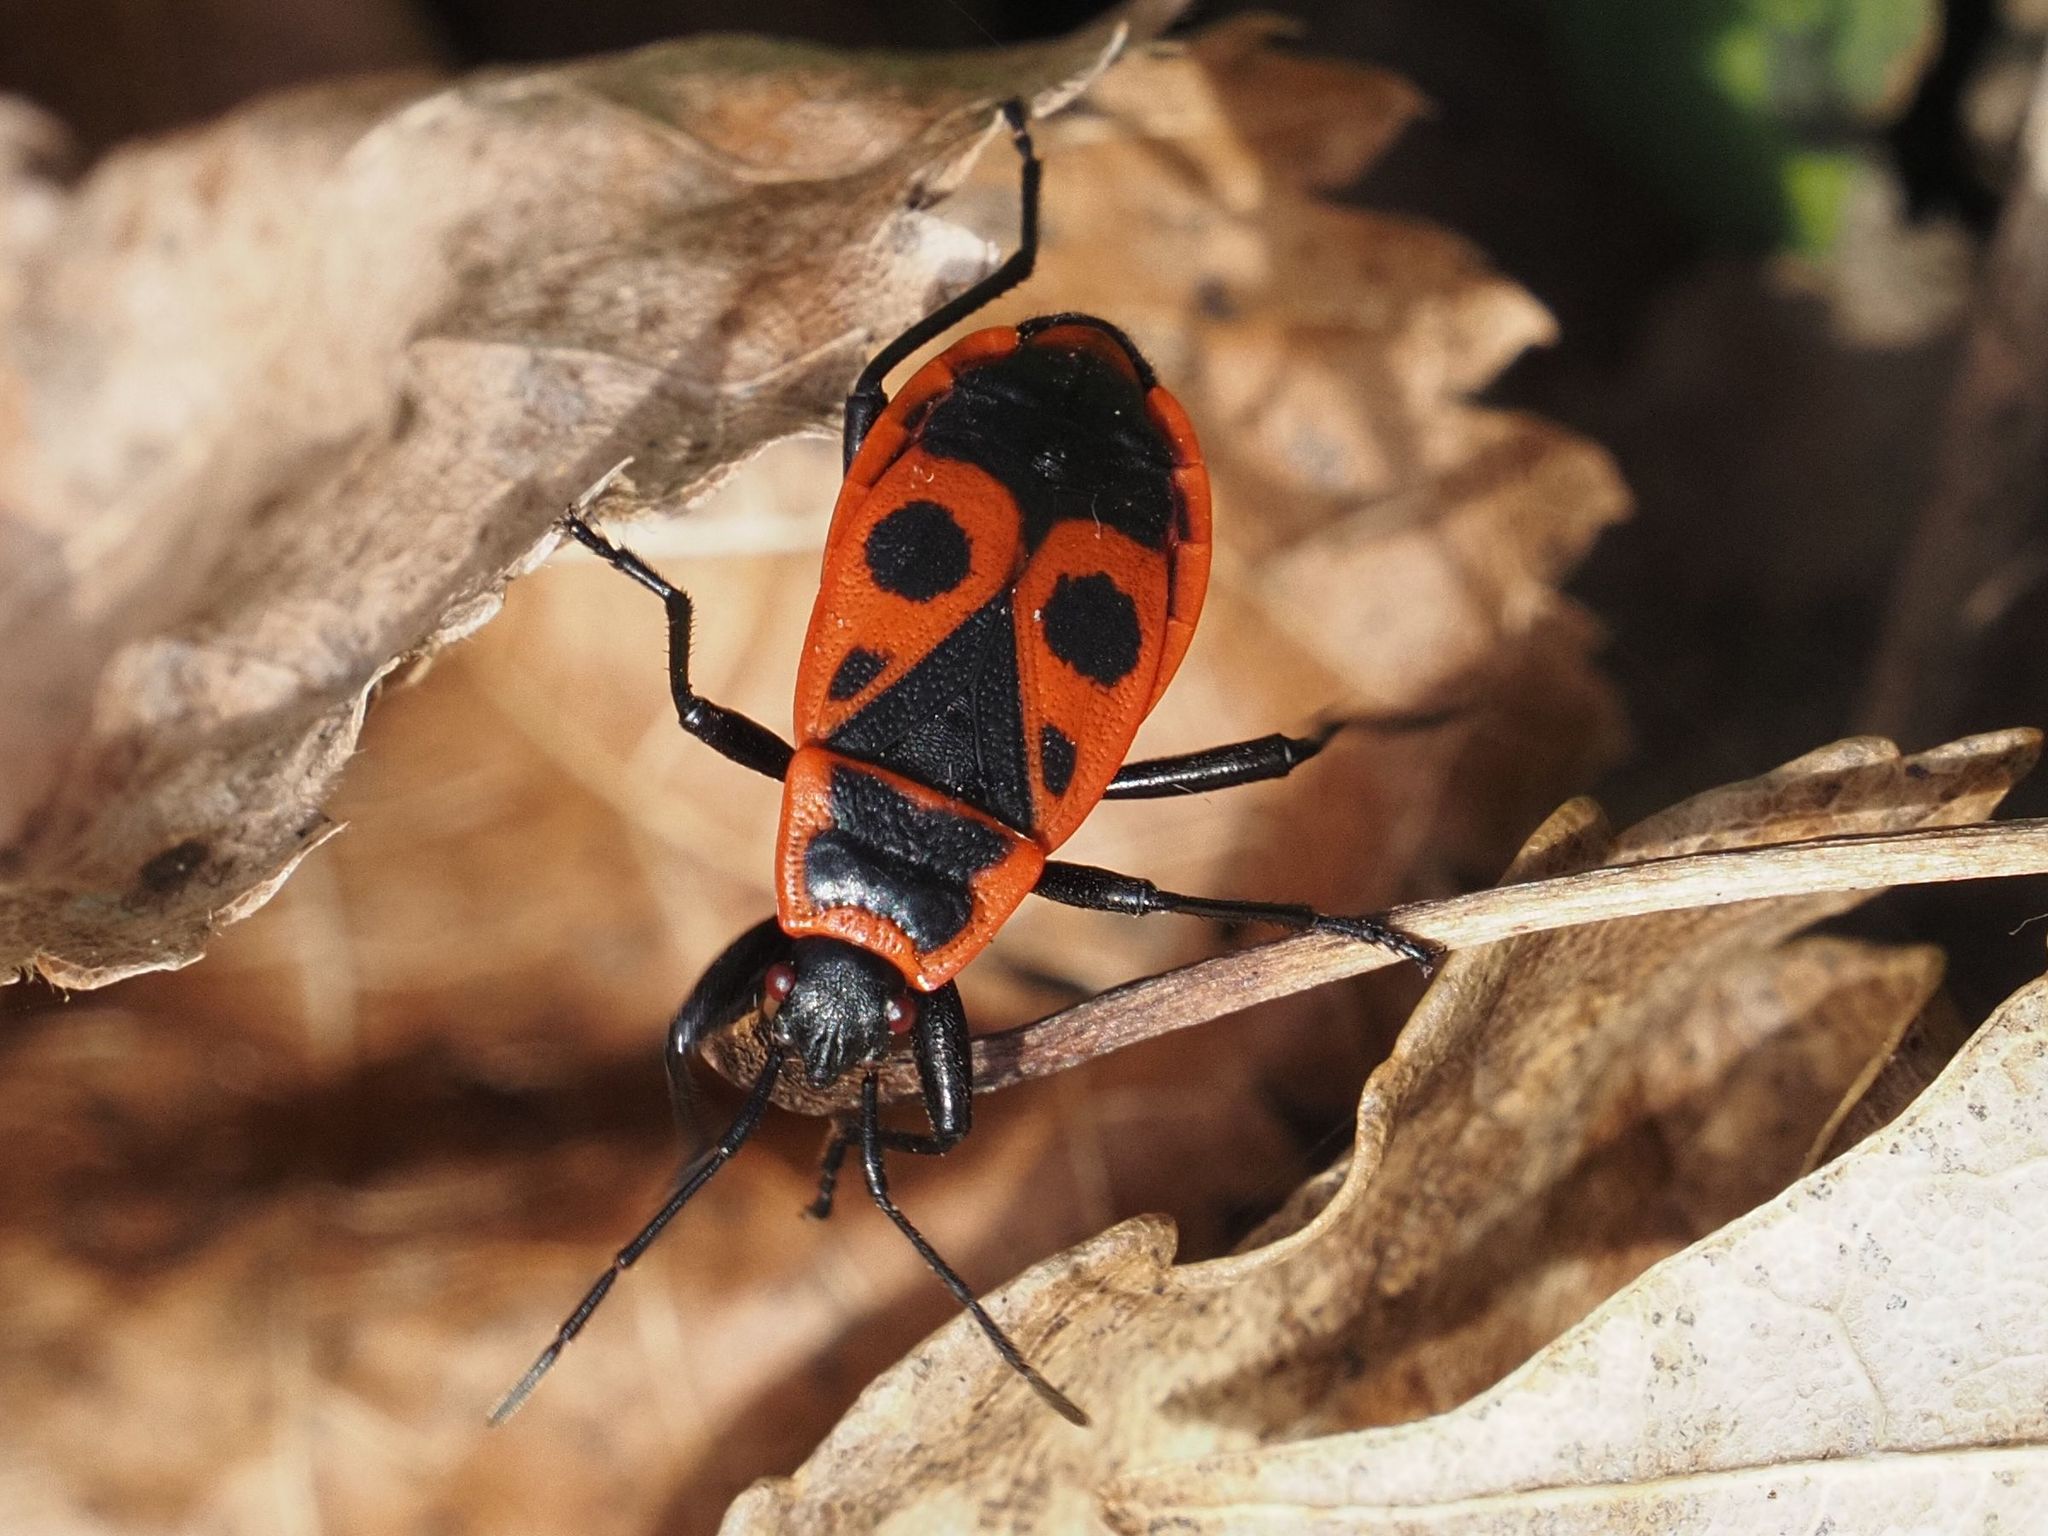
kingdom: Animalia
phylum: Arthropoda
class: Insecta
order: Hemiptera
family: Pyrrhocoridae
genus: Pyrrhocoris
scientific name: Pyrrhocoris apterus
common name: Firebug
